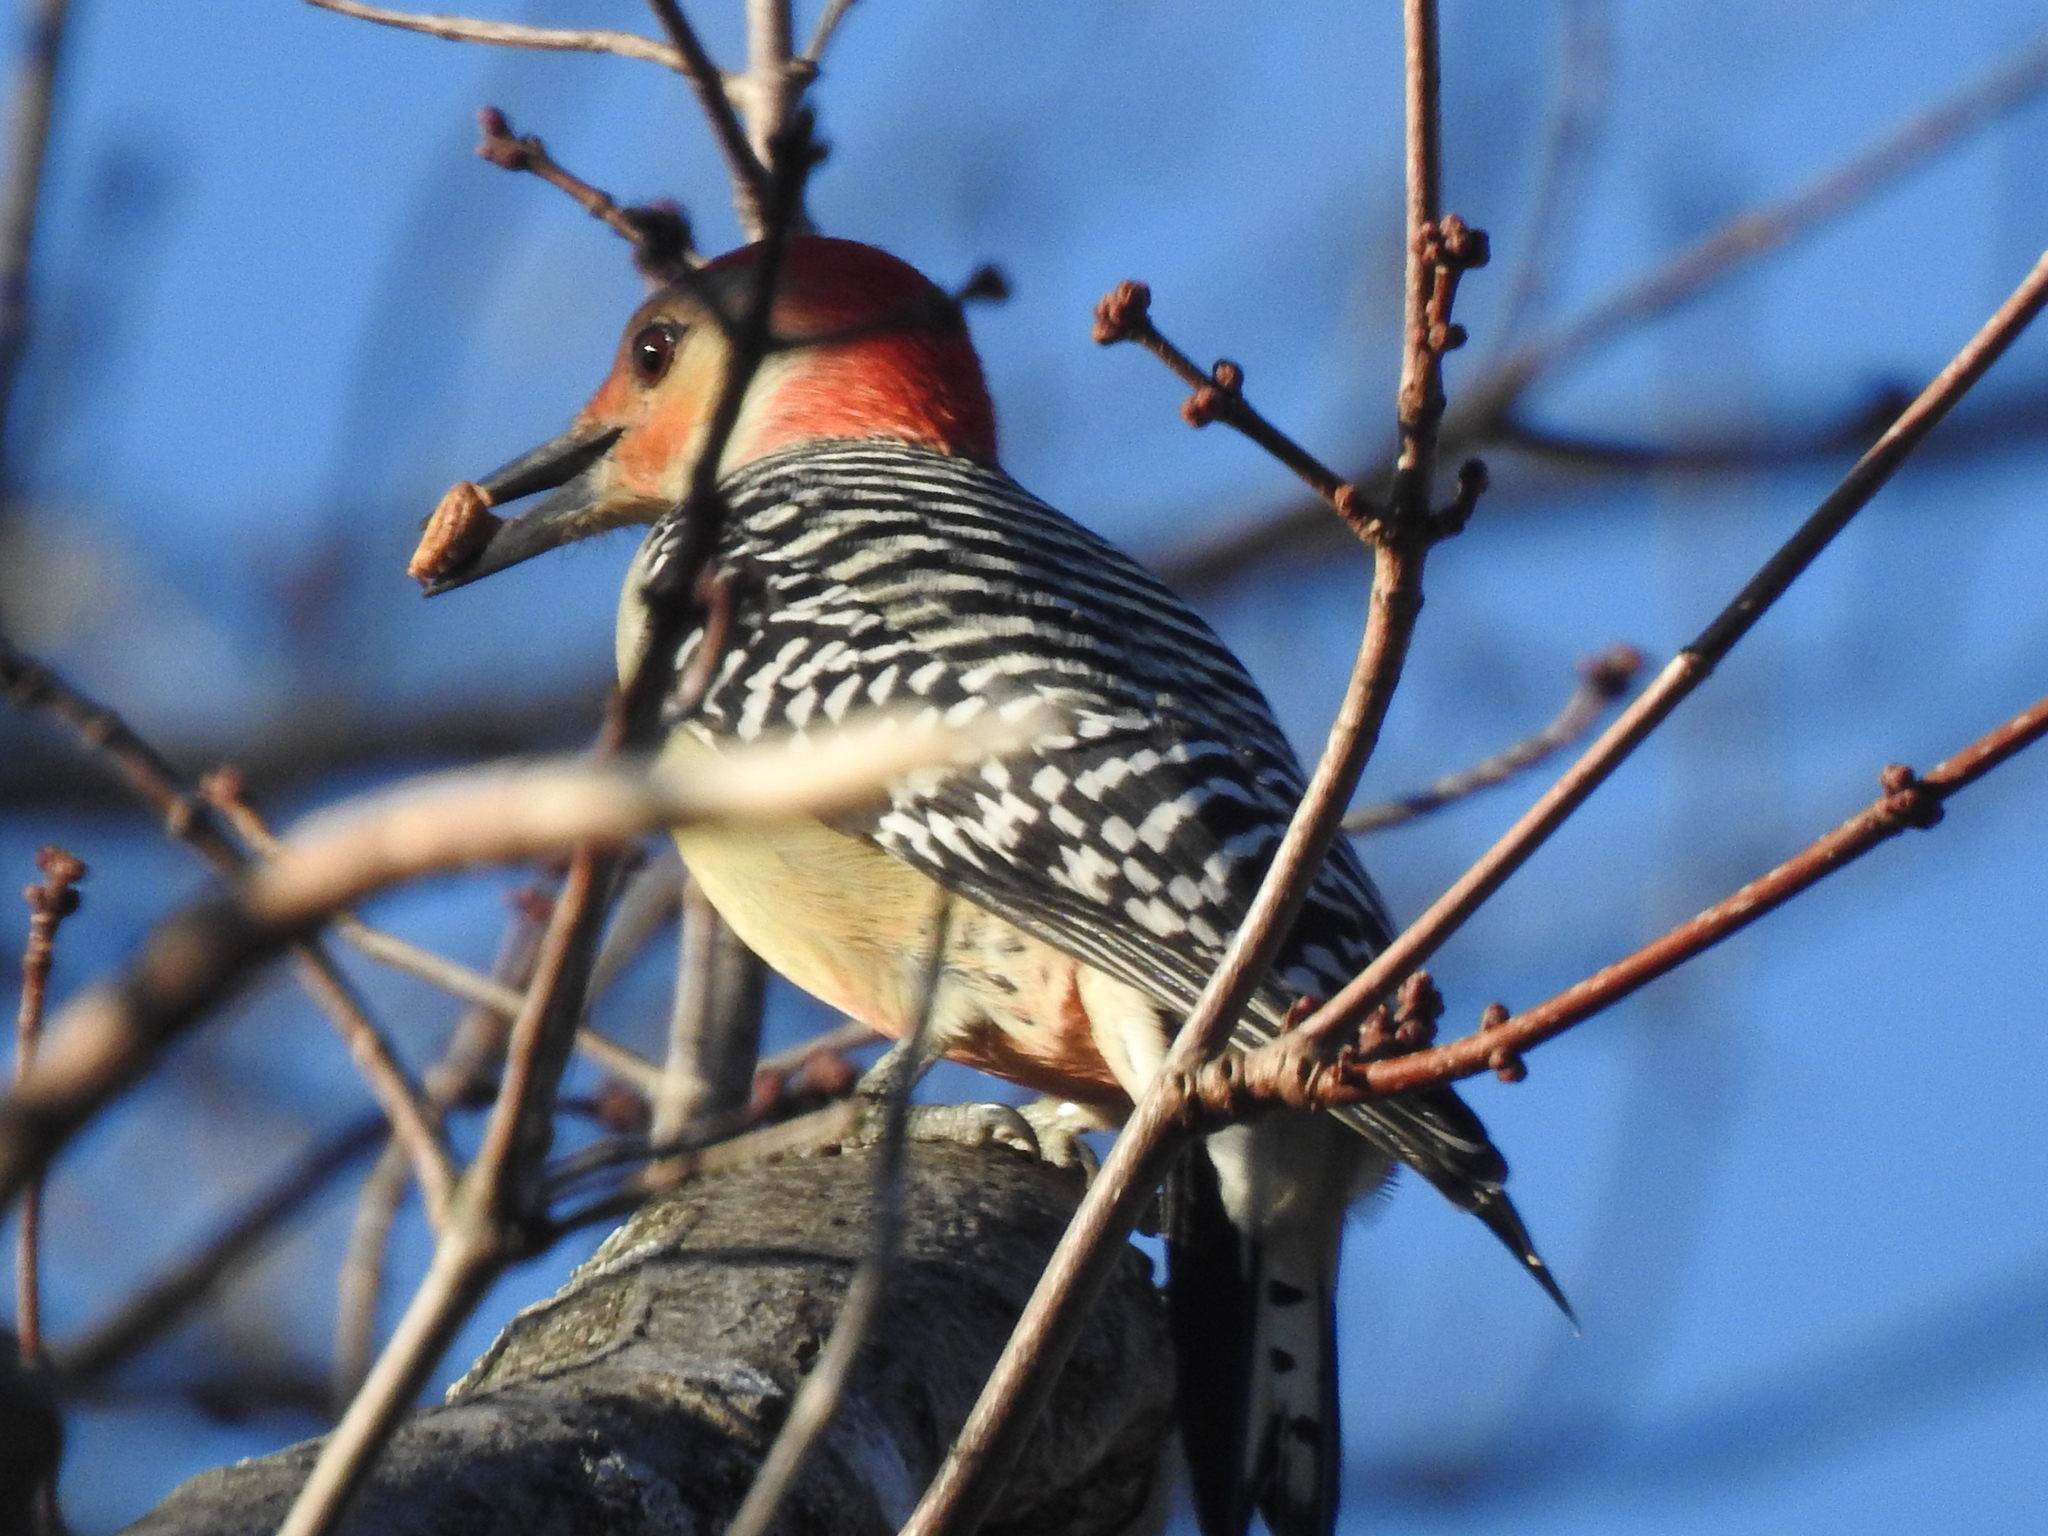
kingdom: Animalia
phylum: Chordata
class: Aves
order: Piciformes
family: Picidae
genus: Melanerpes
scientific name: Melanerpes carolinus
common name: Red-bellied woodpecker
